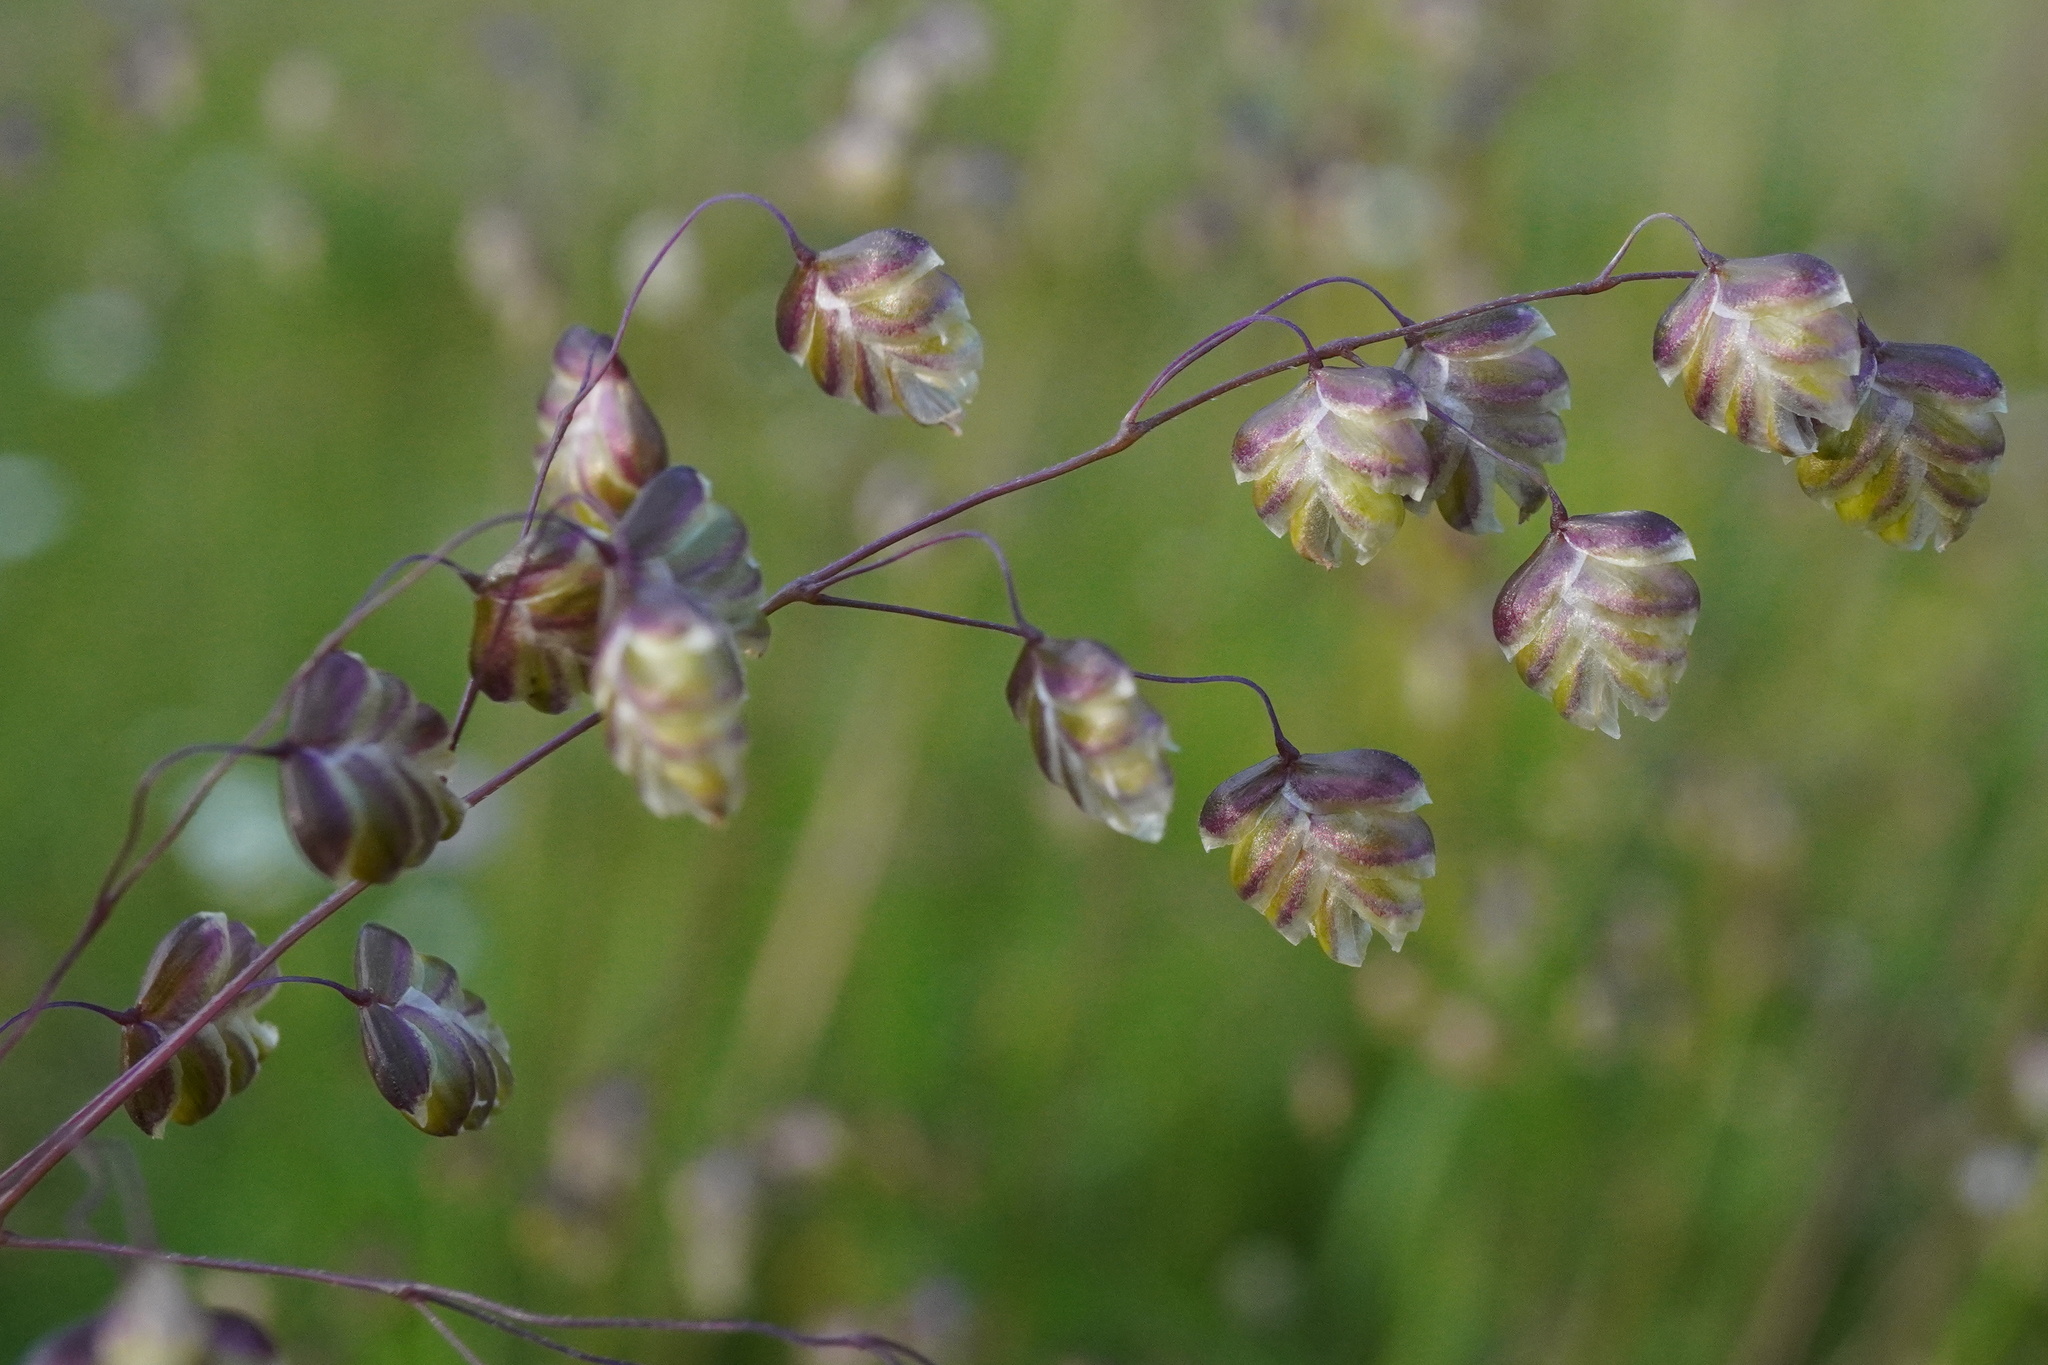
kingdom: Plantae
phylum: Tracheophyta
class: Liliopsida
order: Poales
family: Poaceae
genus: Briza
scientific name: Briza media
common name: Quaking grass
